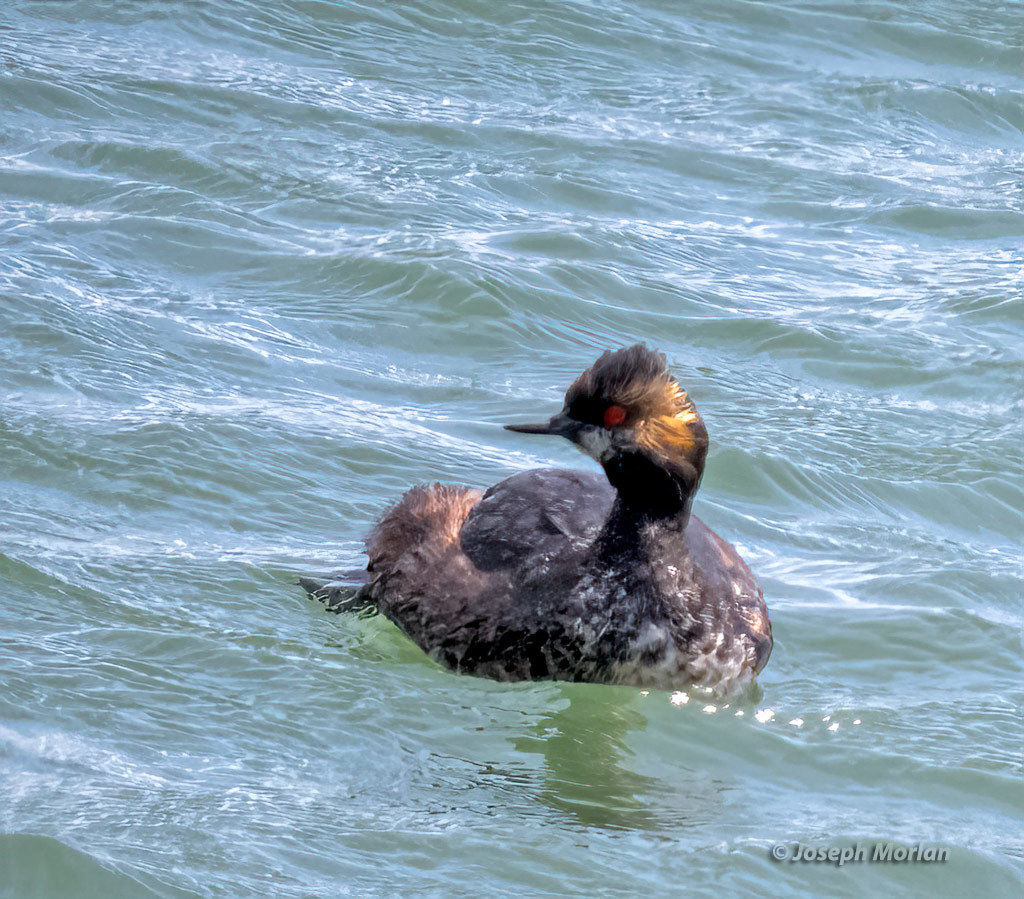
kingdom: Animalia
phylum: Chordata
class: Aves
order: Podicipediformes
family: Podicipedidae
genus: Podiceps
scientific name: Podiceps nigricollis
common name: Black-necked grebe
